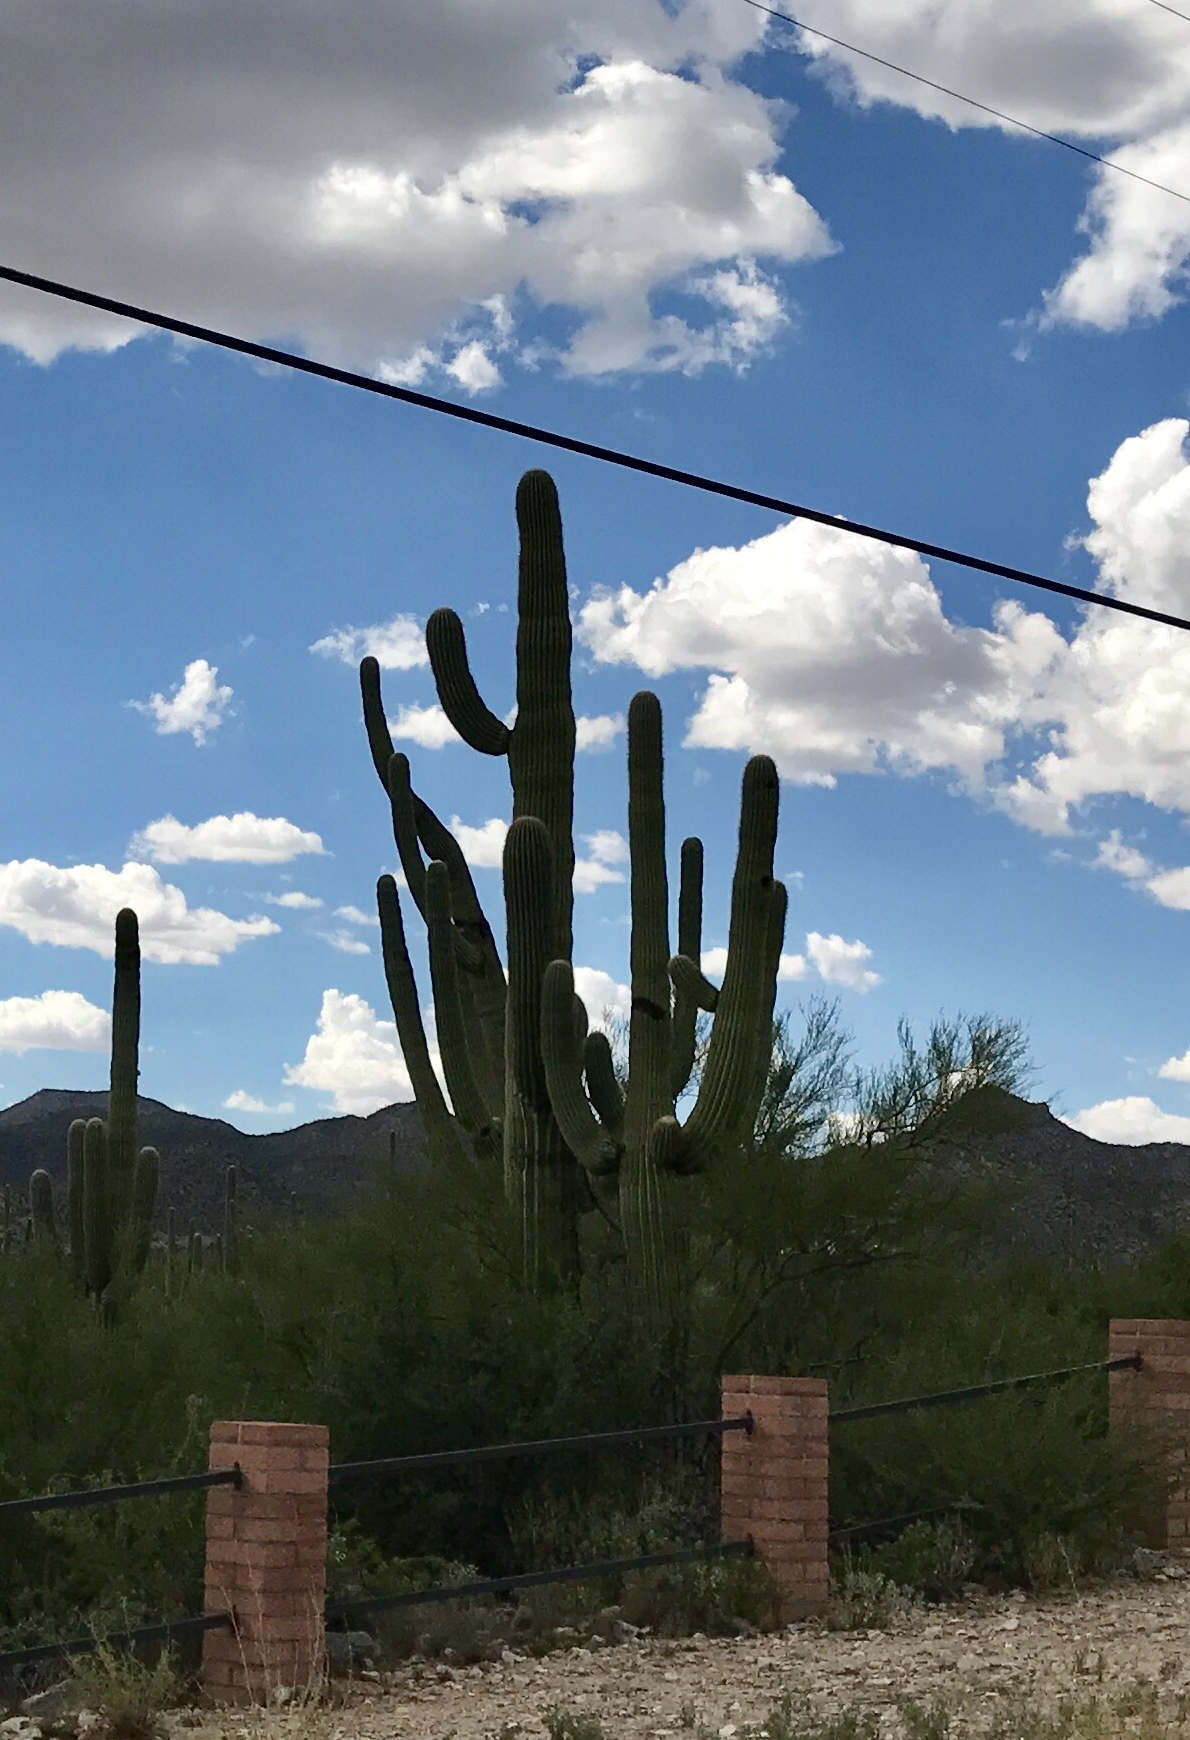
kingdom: Plantae
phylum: Tracheophyta
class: Magnoliopsida
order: Caryophyllales
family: Cactaceae
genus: Carnegiea
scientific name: Carnegiea gigantea
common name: Saguaro
